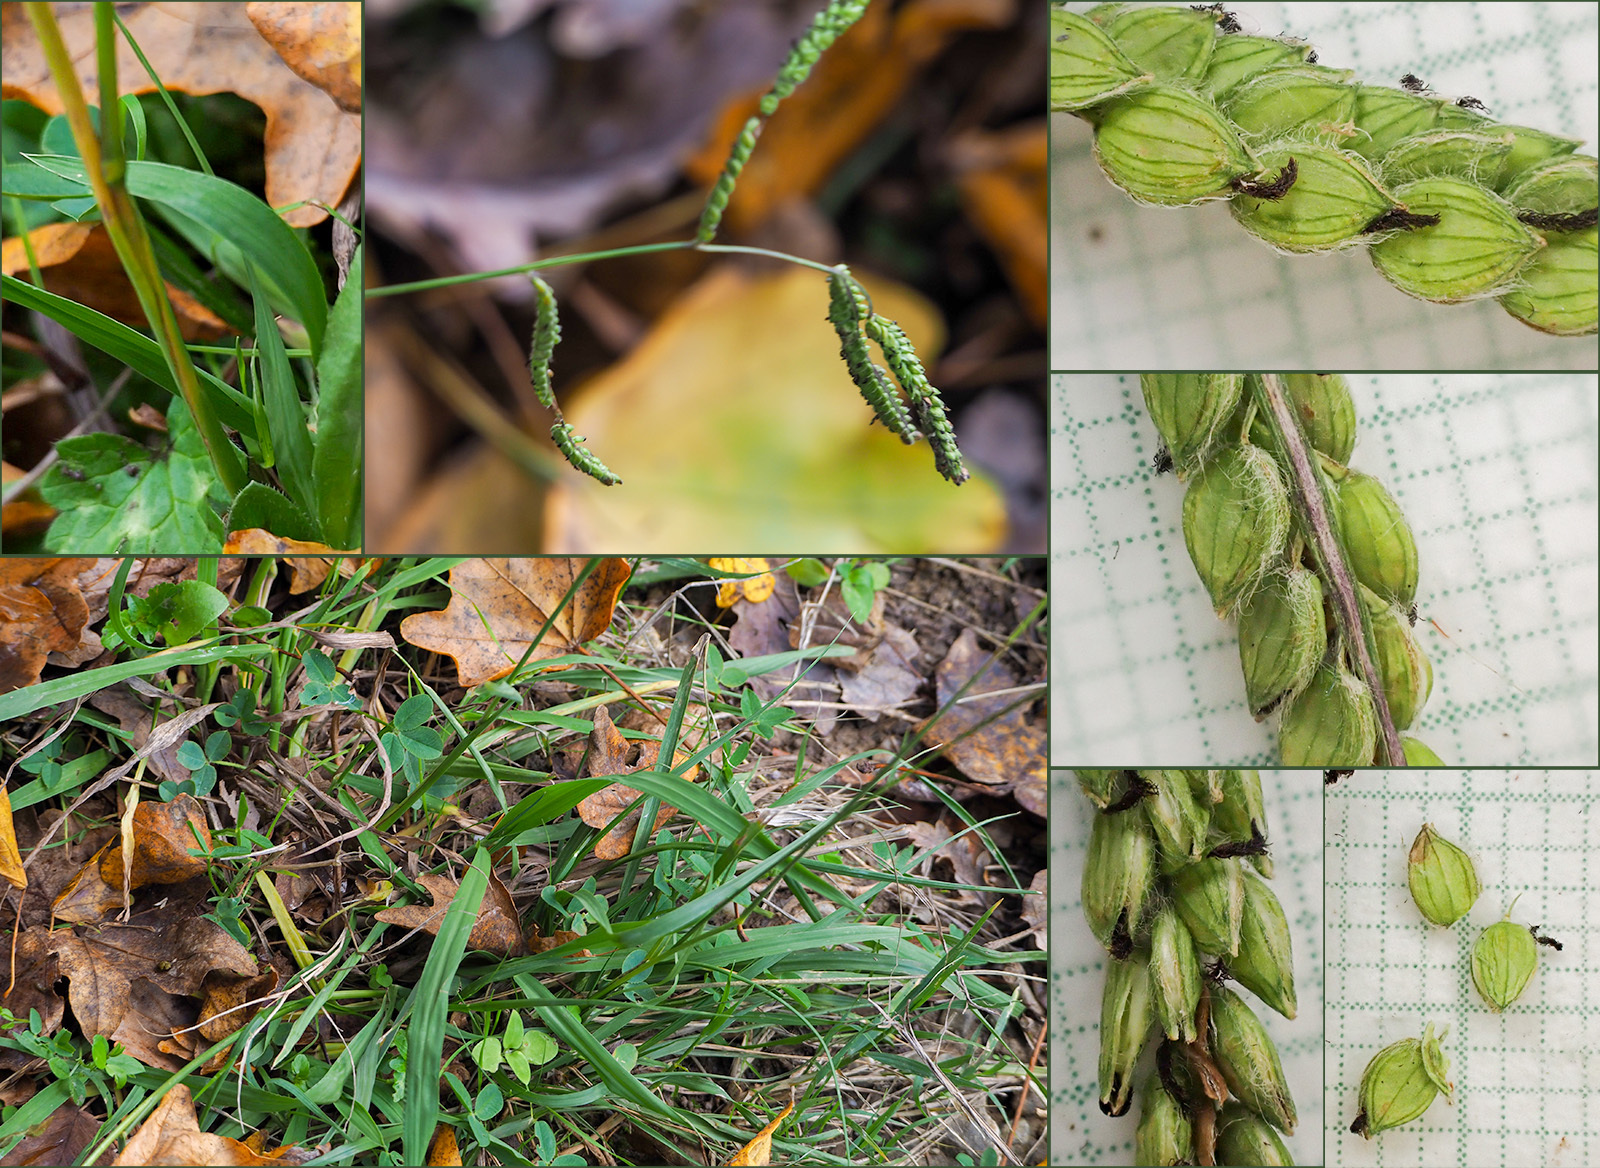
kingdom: Plantae
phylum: Tracheophyta
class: Liliopsida
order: Poales
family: Poaceae
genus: Paspalum
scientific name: Paspalum dilatatum
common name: Dallisgrass
